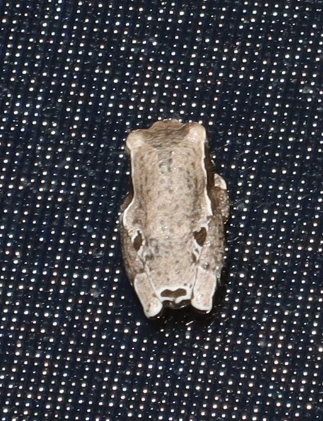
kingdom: Animalia
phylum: Chordata
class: Amphibia
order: Anura
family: Hyperoliidae
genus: Hyperolius
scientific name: Hyperolius marmoratus
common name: Painted reed frog
